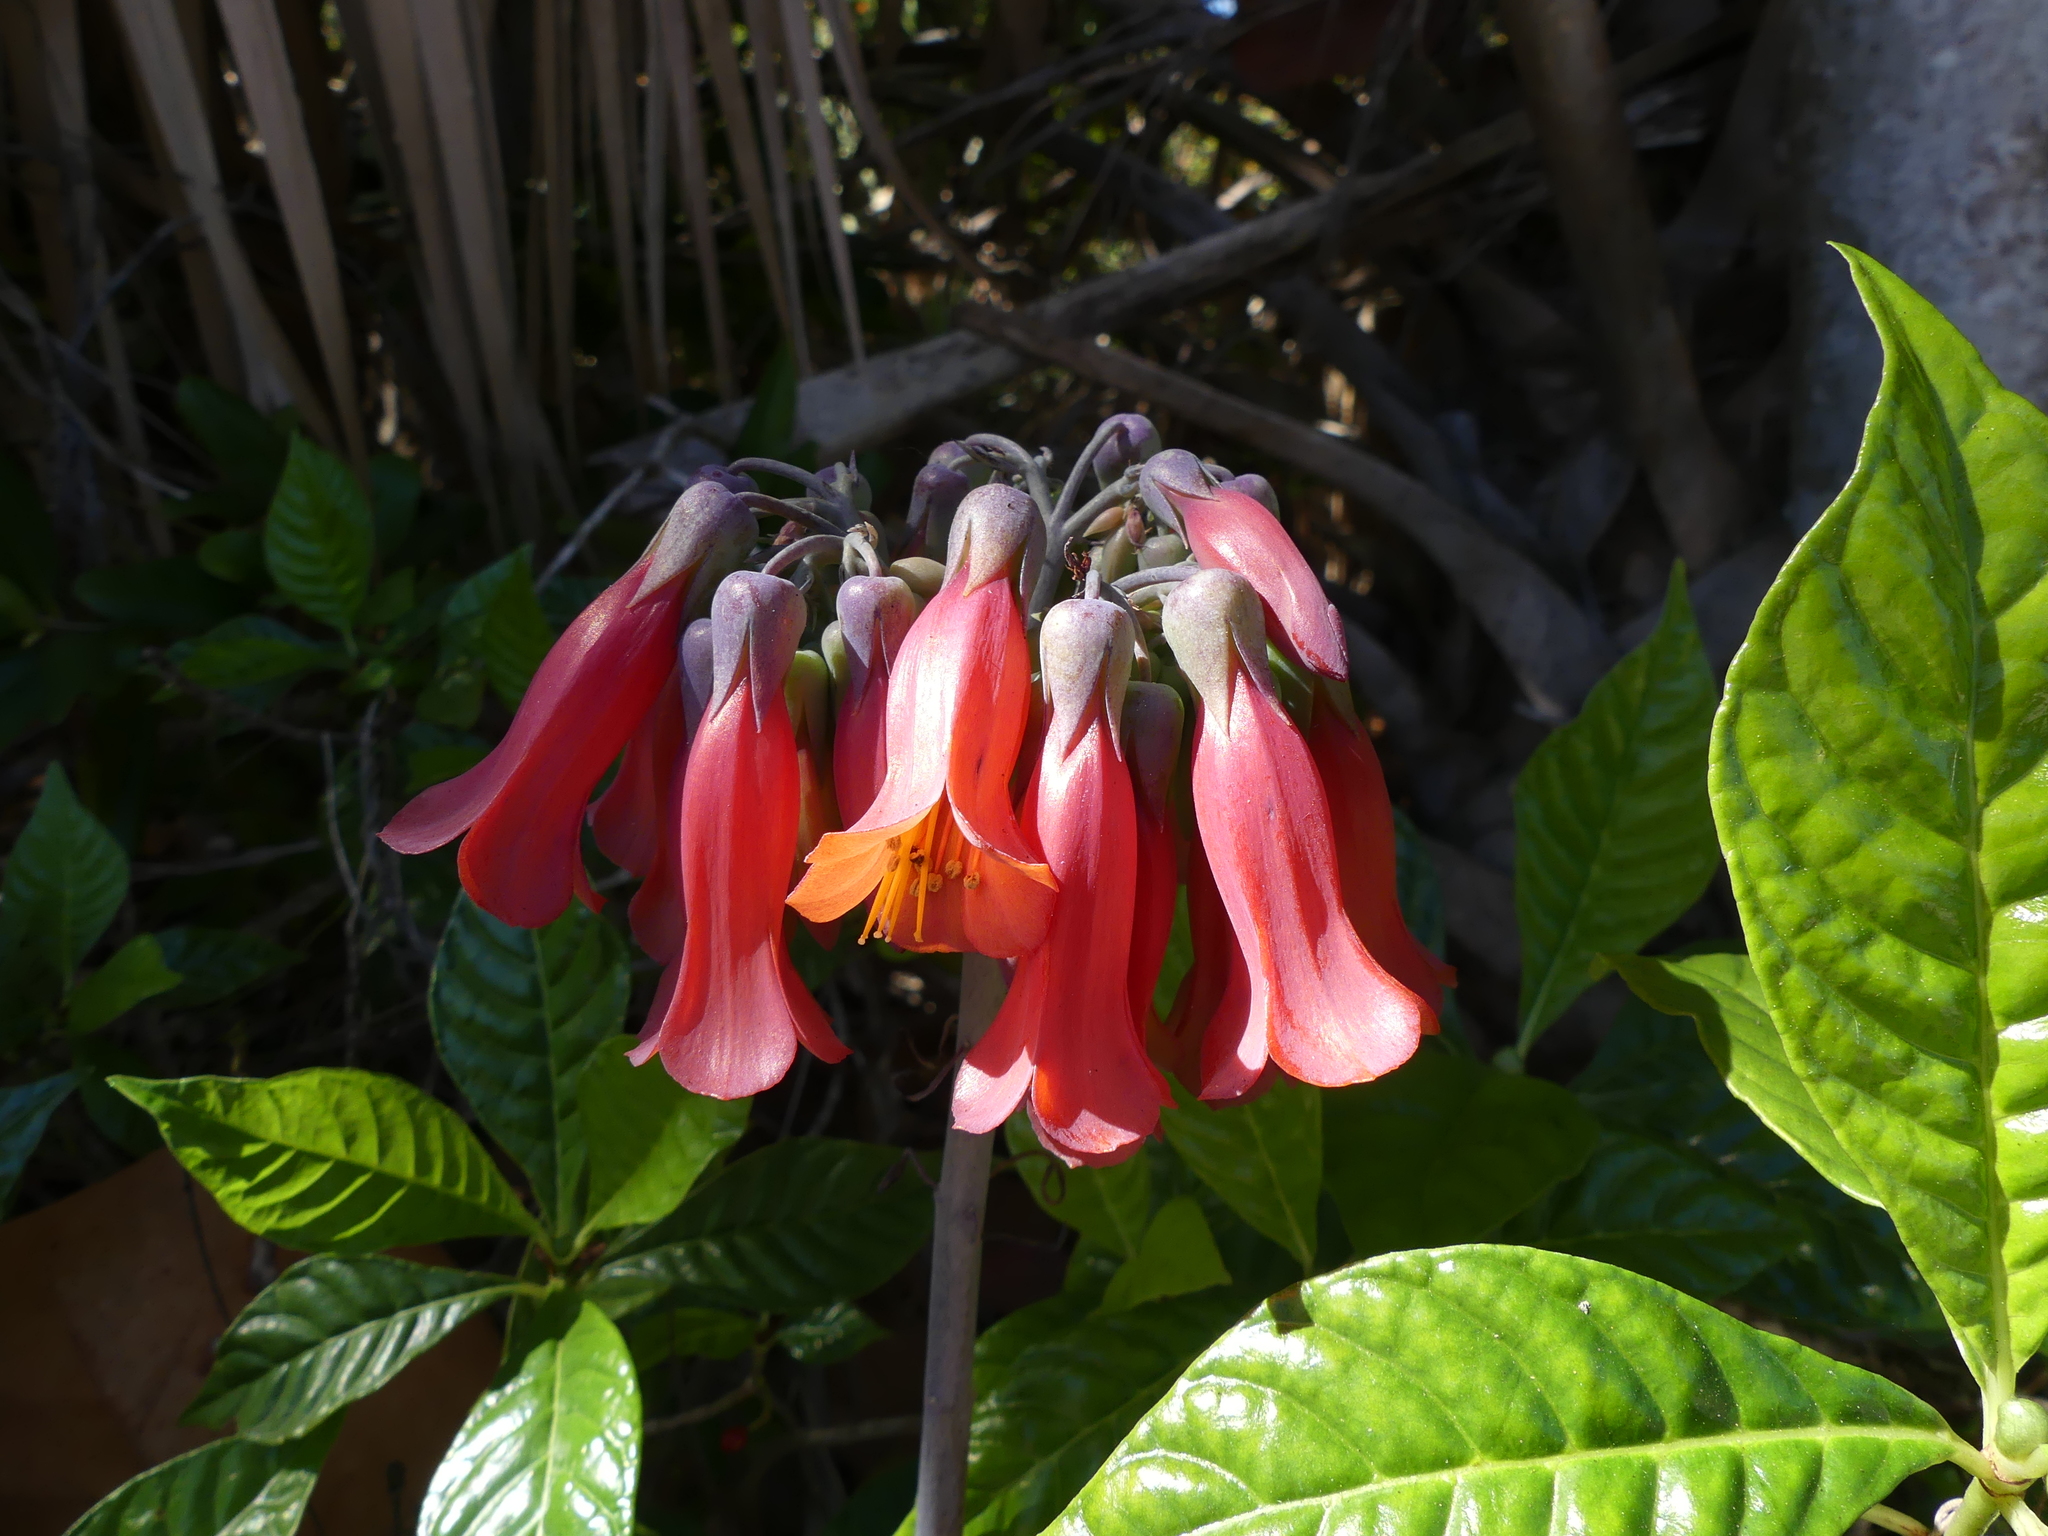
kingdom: Plantae
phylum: Tracheophyta
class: Magnoliopsida
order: Saxifragales
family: Crassulaceae
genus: Kalanchoe
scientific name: Kalanchoe delagoensis
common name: Chandelier plant
